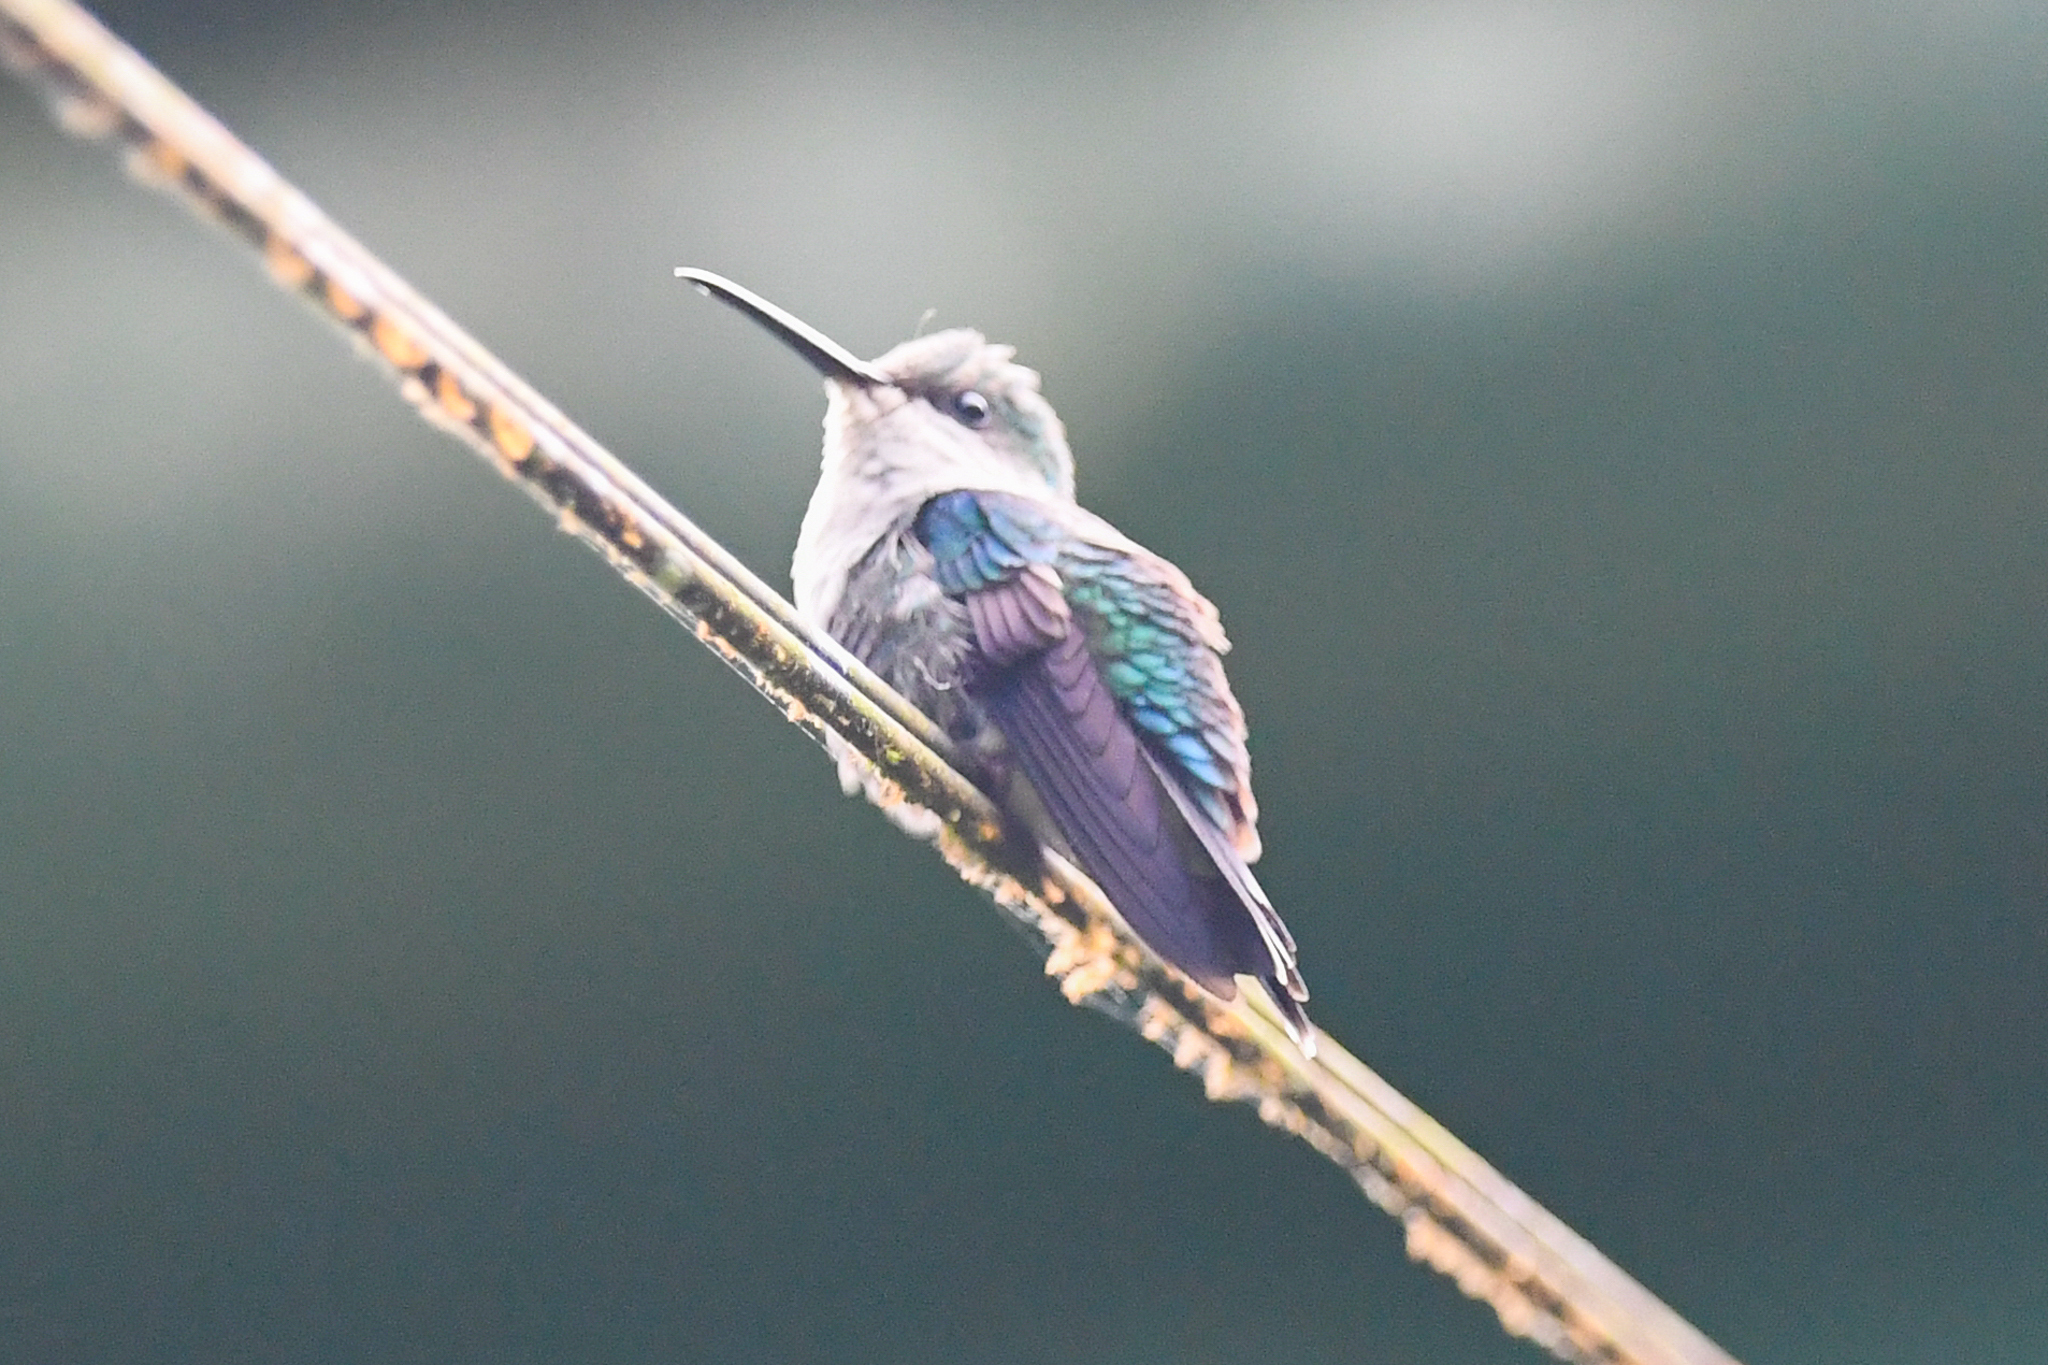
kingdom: Animalia
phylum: Chordata
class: Aves
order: Apodiformes
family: Trochilidae
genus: Thalurania
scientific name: Thalurania colombica
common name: Crowned woodnymph
